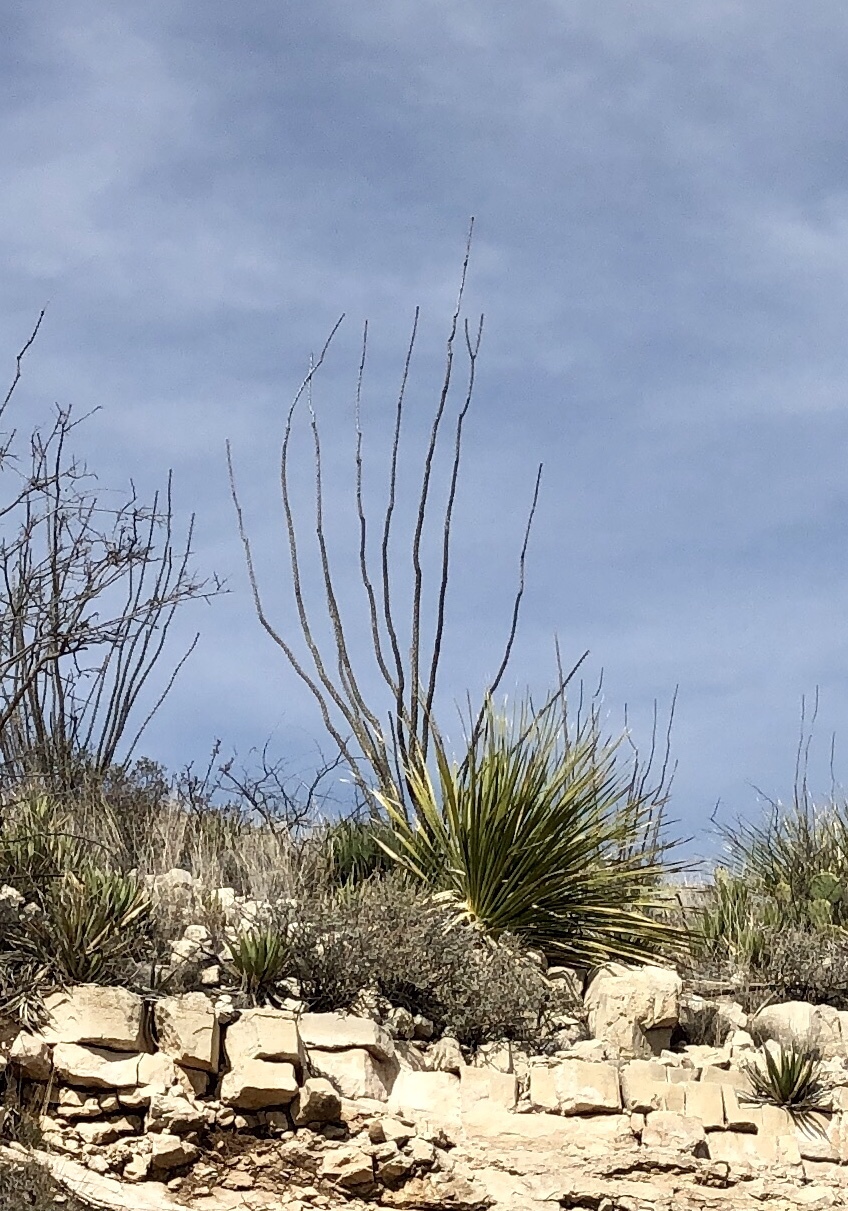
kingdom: Plantae
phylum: Tracheophyta
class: Magnoliopsida
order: Ericales
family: Fouquieriaceae
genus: Fouquieria
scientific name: Fouquieria splendens
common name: Vine-cactus
